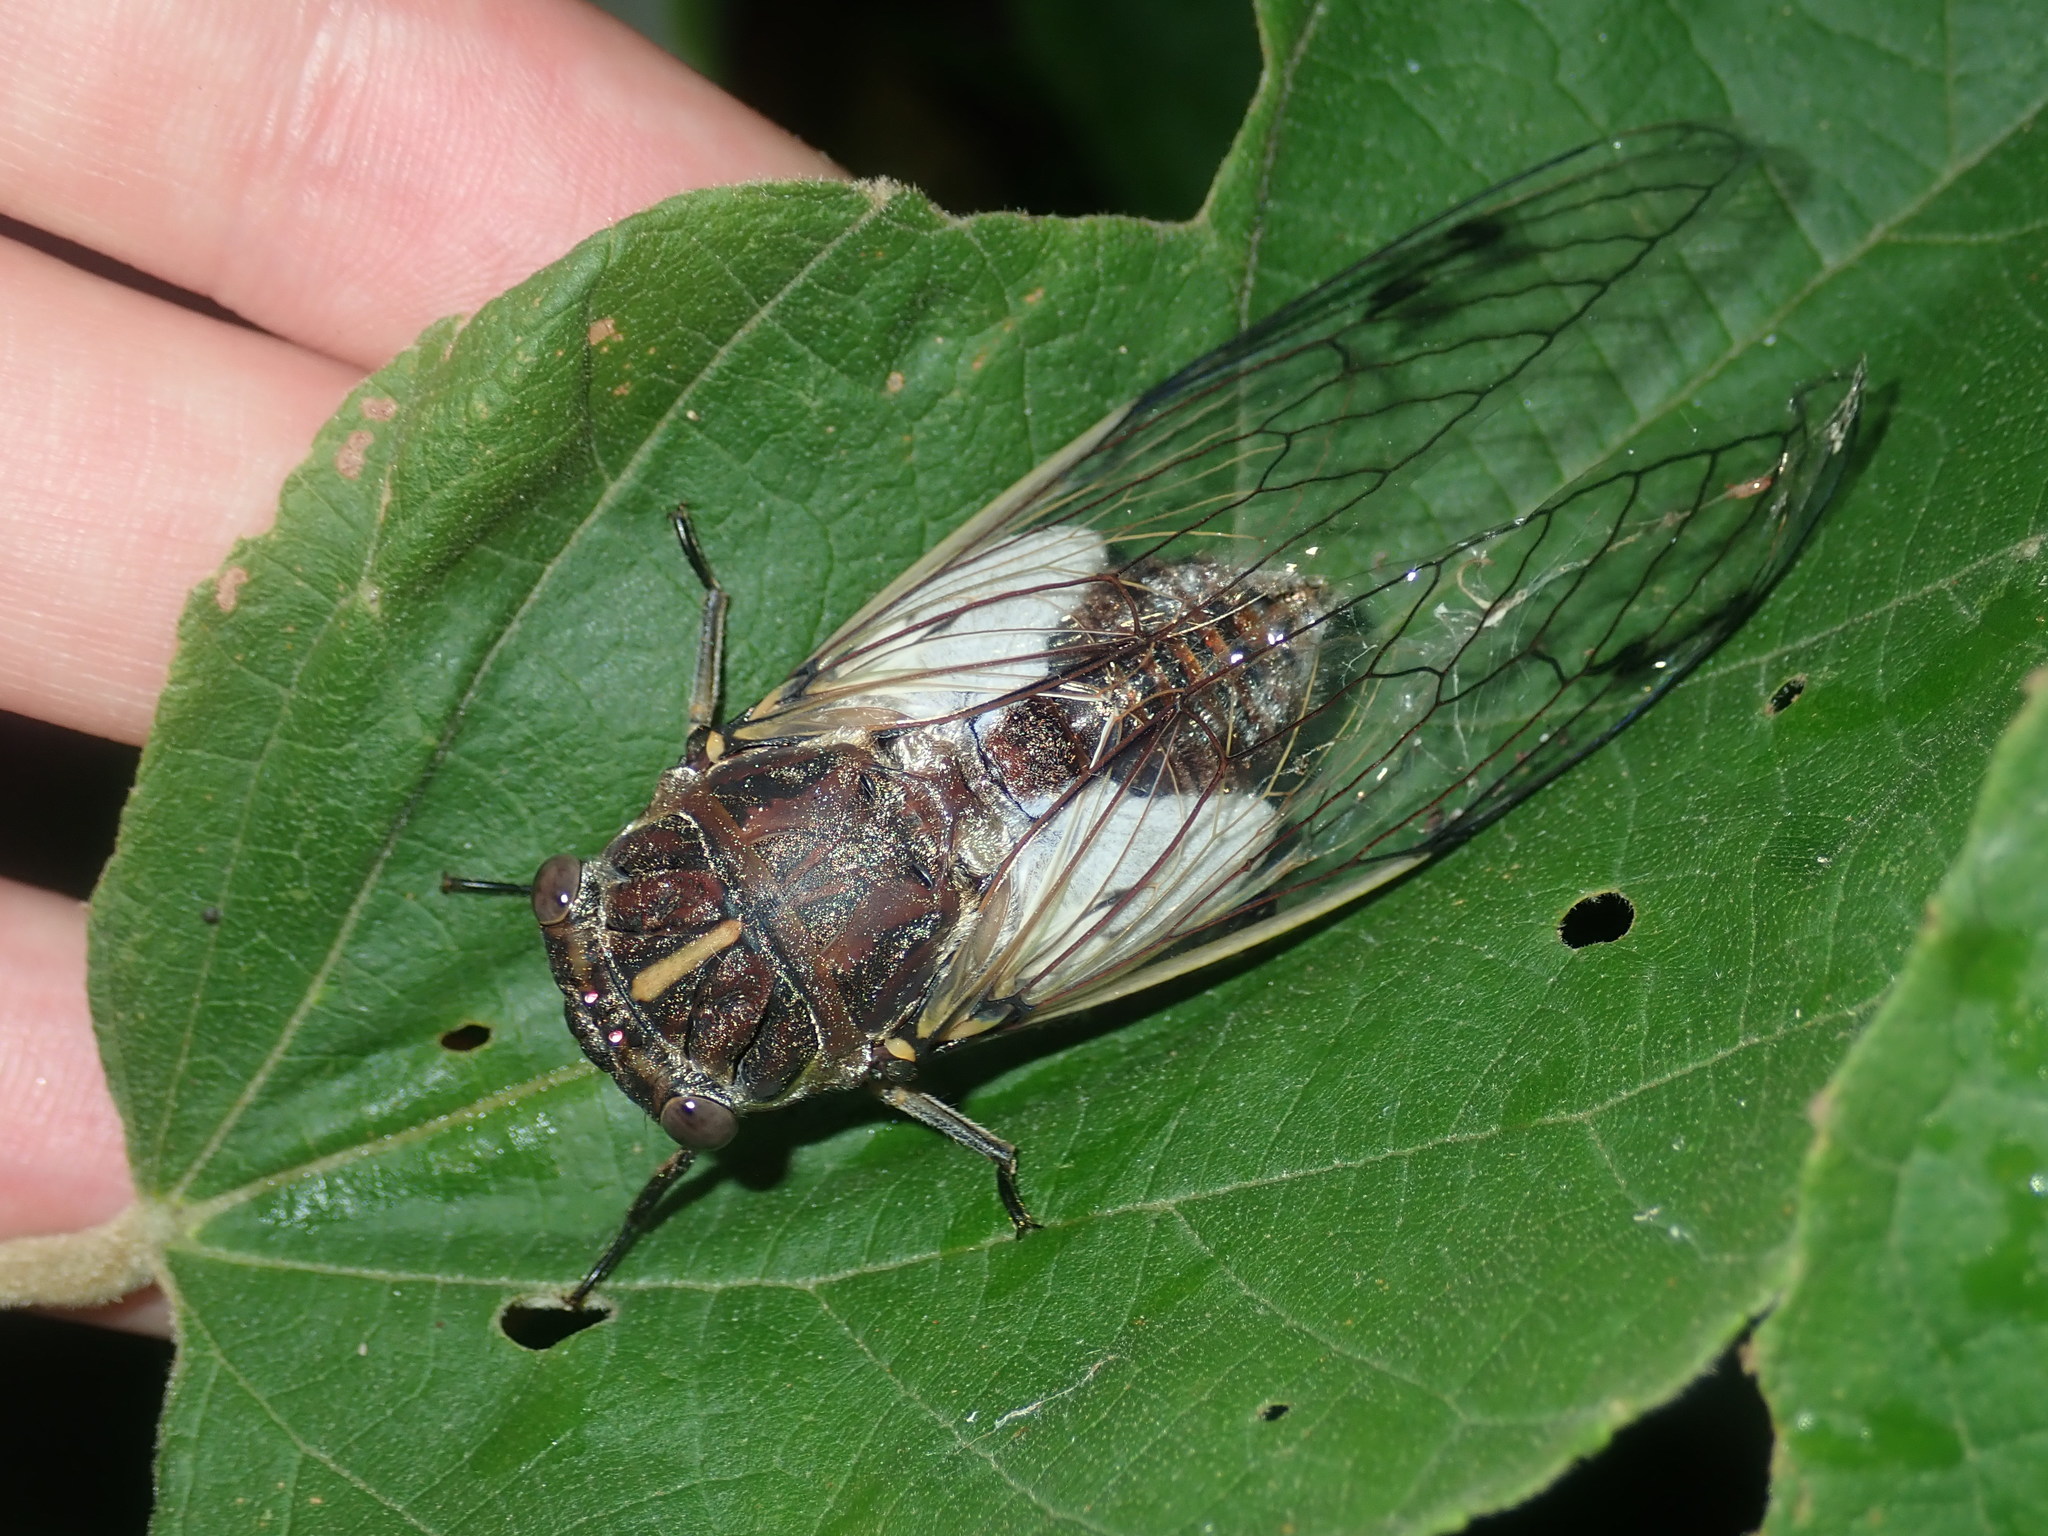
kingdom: Animalia
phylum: Arthropoda
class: Insecta
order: Hemiptera
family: Cicadidae
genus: Arunta
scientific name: Arunta perulata
